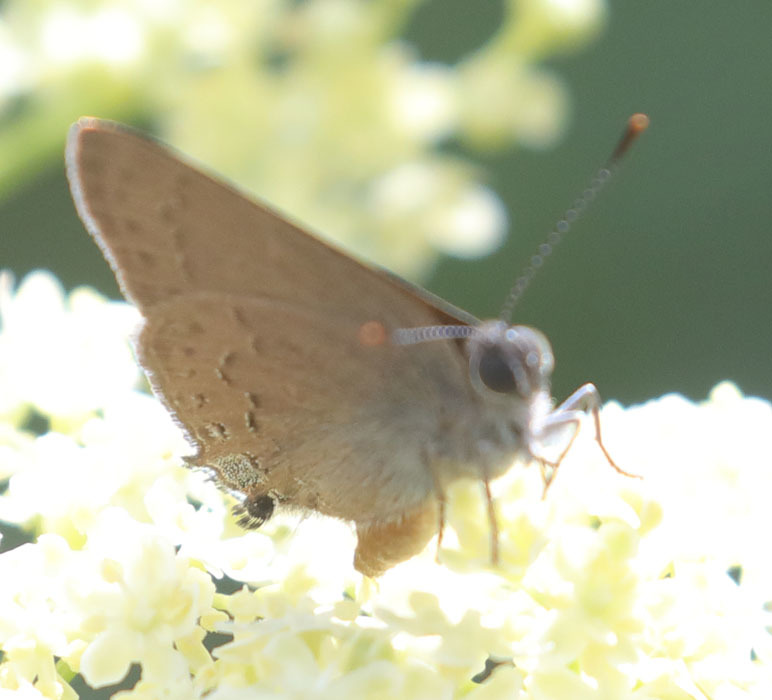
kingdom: Animalia
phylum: Arthropoda
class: Insecta
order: Lepidoptera
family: Lycaenidae
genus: Strymon
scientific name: Strymon saepium
